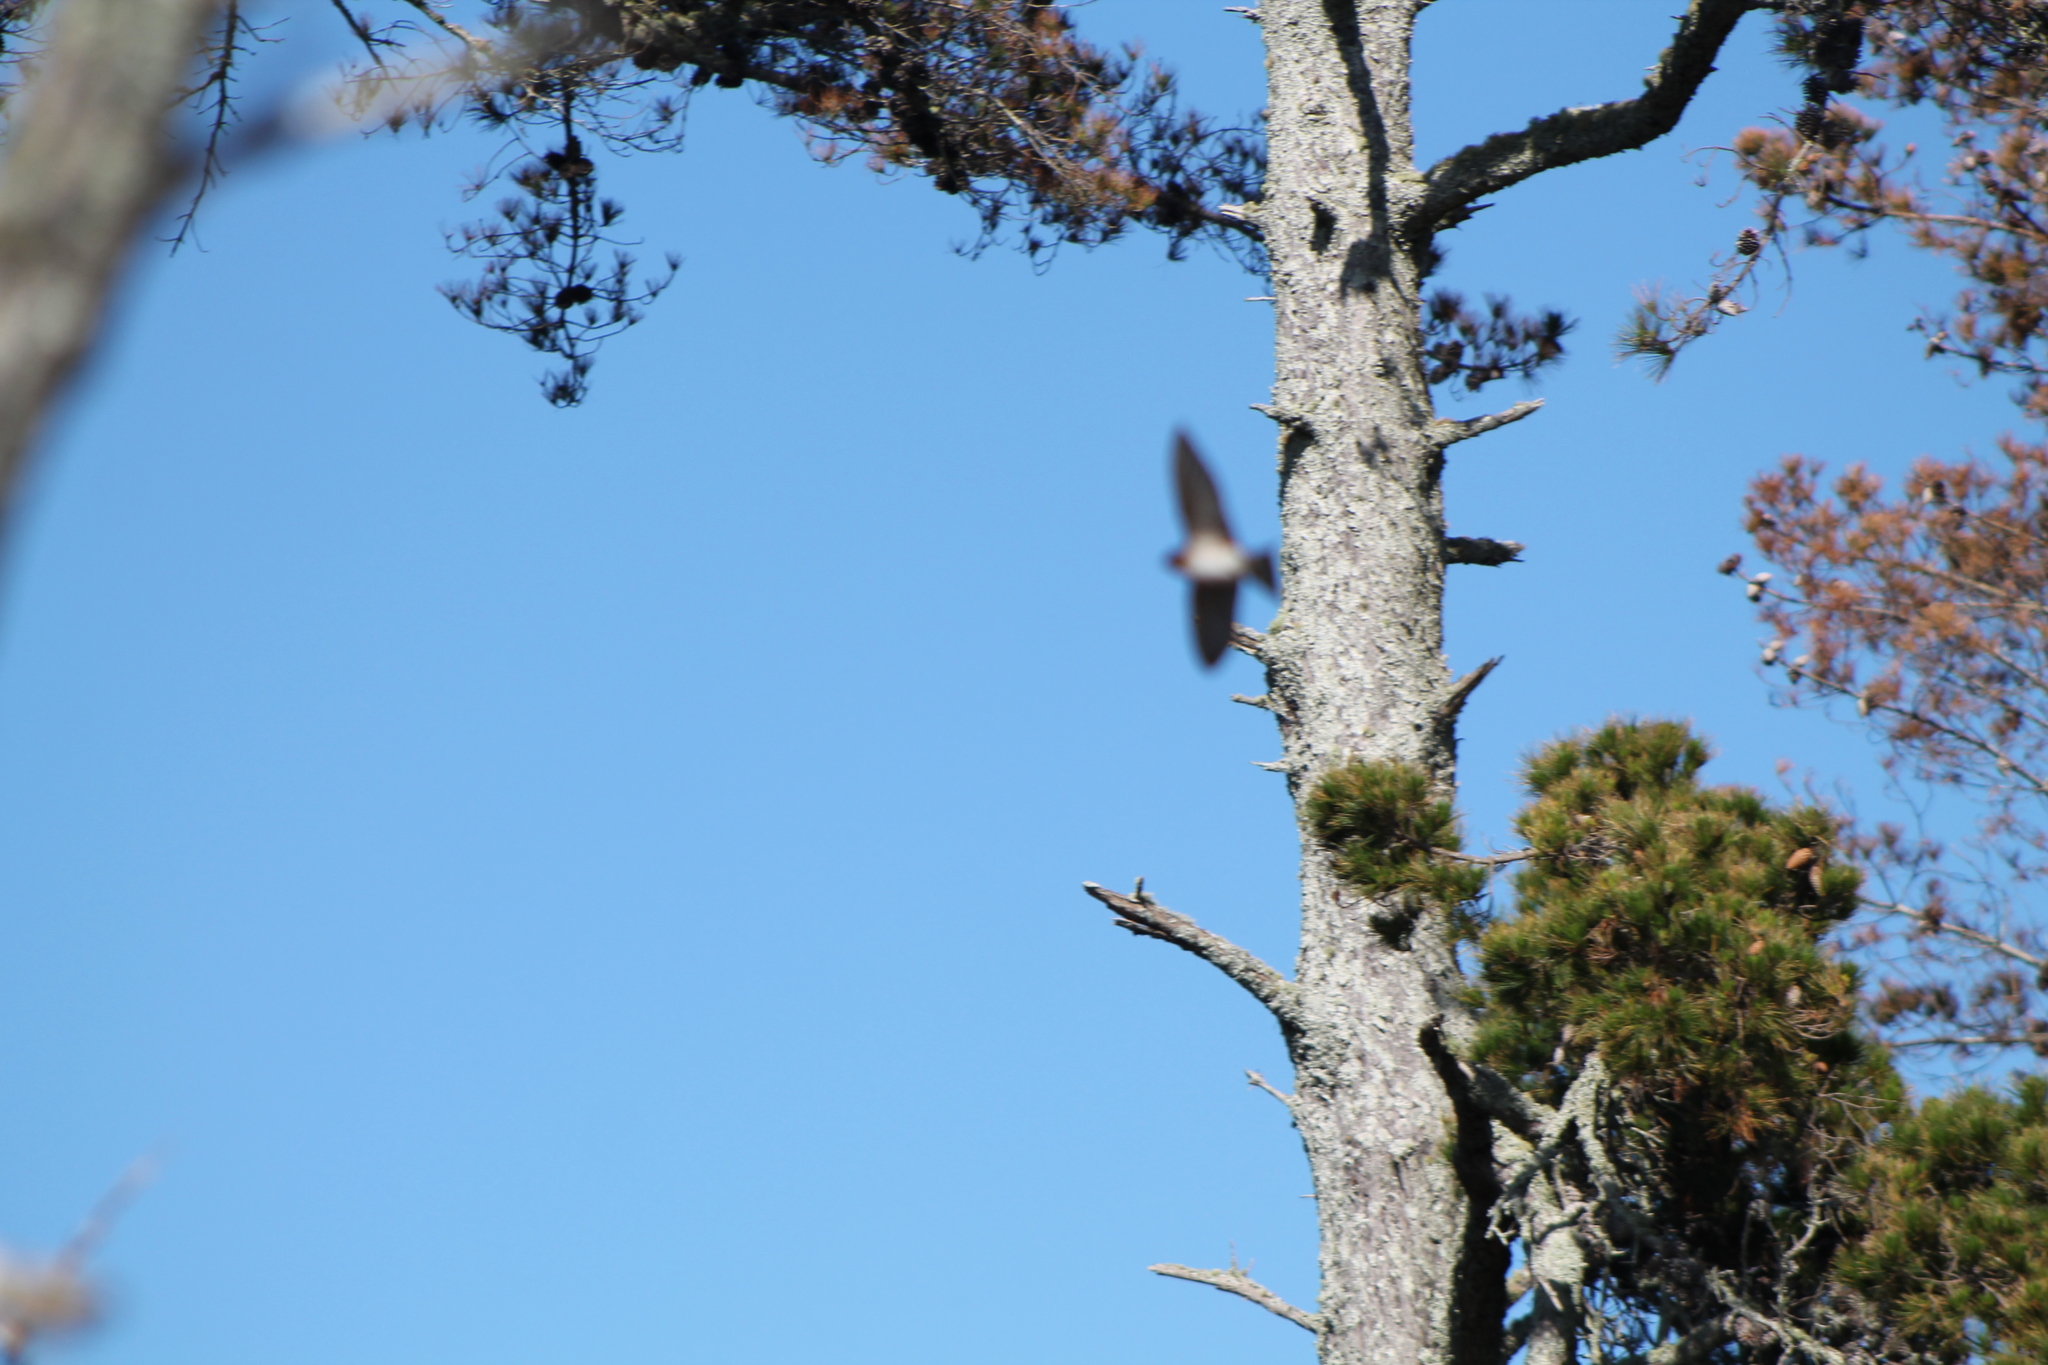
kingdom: Animalia
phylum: Chordata
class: Aves
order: Passeriformes
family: Hirundinidae
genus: Hirundo
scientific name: Hirundo neoxena
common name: Welcome swallow
